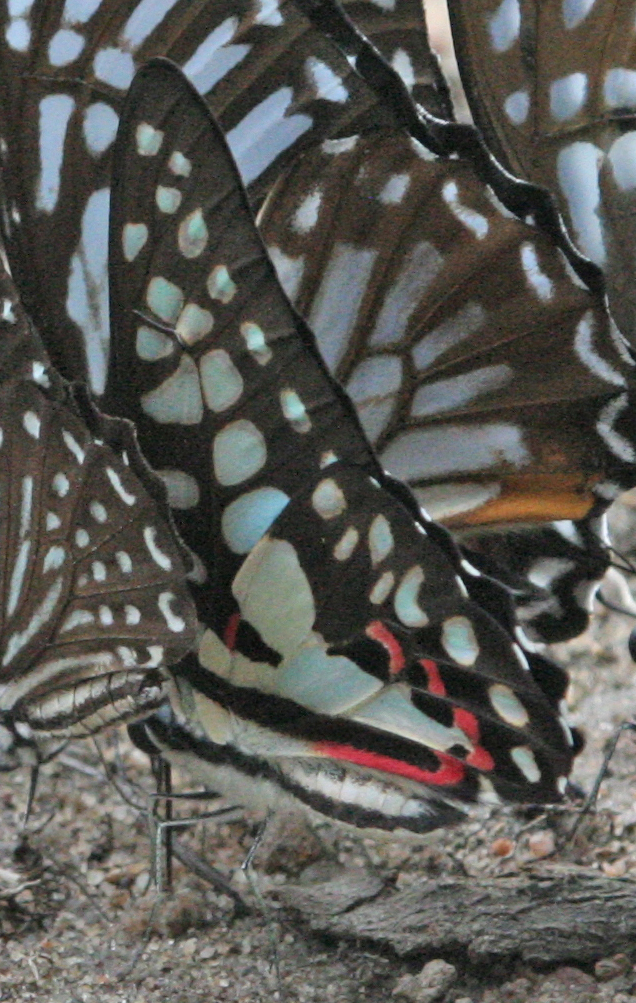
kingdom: Animalia
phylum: Arthropoda
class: Insecta
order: Lepidoptera
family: Papilionidae
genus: Graphium
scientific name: Graphium doson
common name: Common jay
